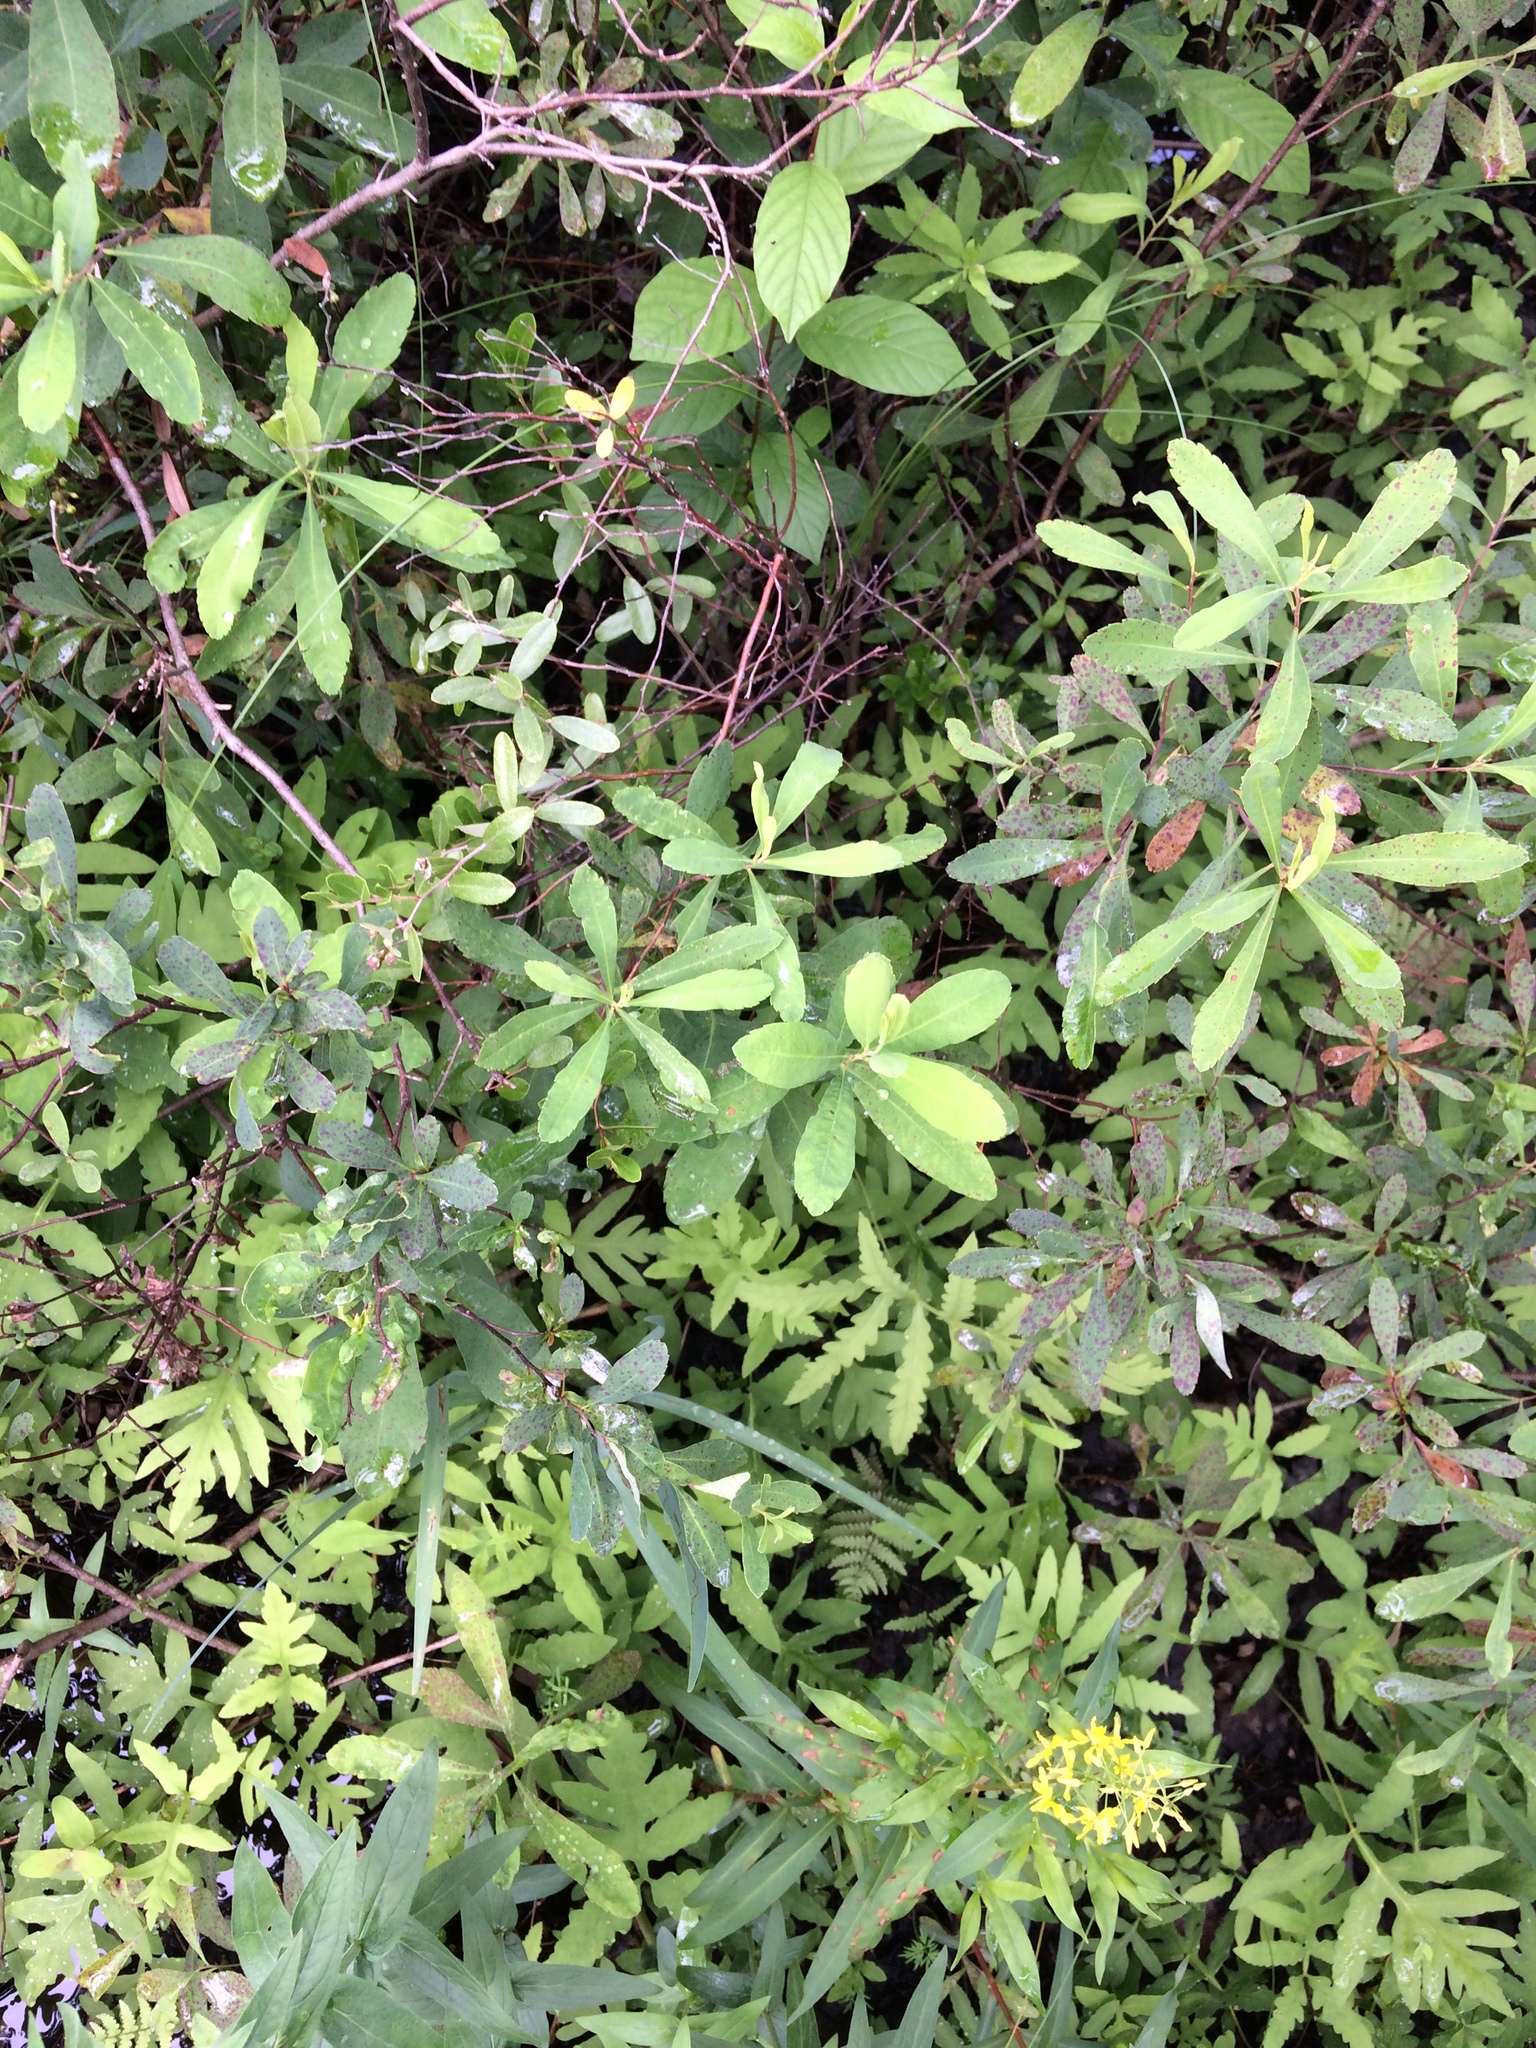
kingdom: Plantae
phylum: Tracheophyta
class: Magnoliopsida
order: Fagales
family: Myricaceae
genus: Myrica
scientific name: Myrica gale
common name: Sweet gale
